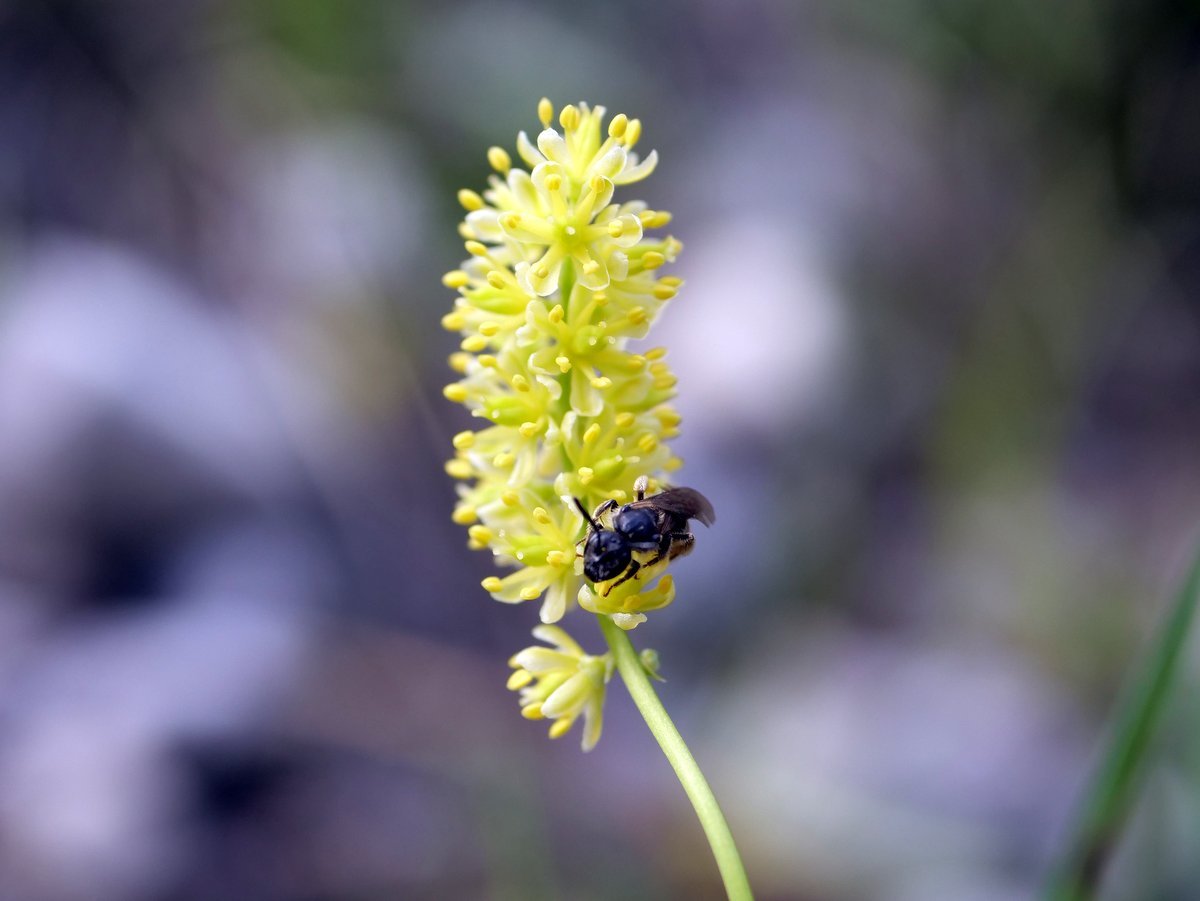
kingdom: Plantae
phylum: Tracheophyta
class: Liliopsida
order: Alismatales
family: Tofieldiaceae
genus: Tofieldia
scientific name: Tofieldia calyculata
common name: German-asphodel
